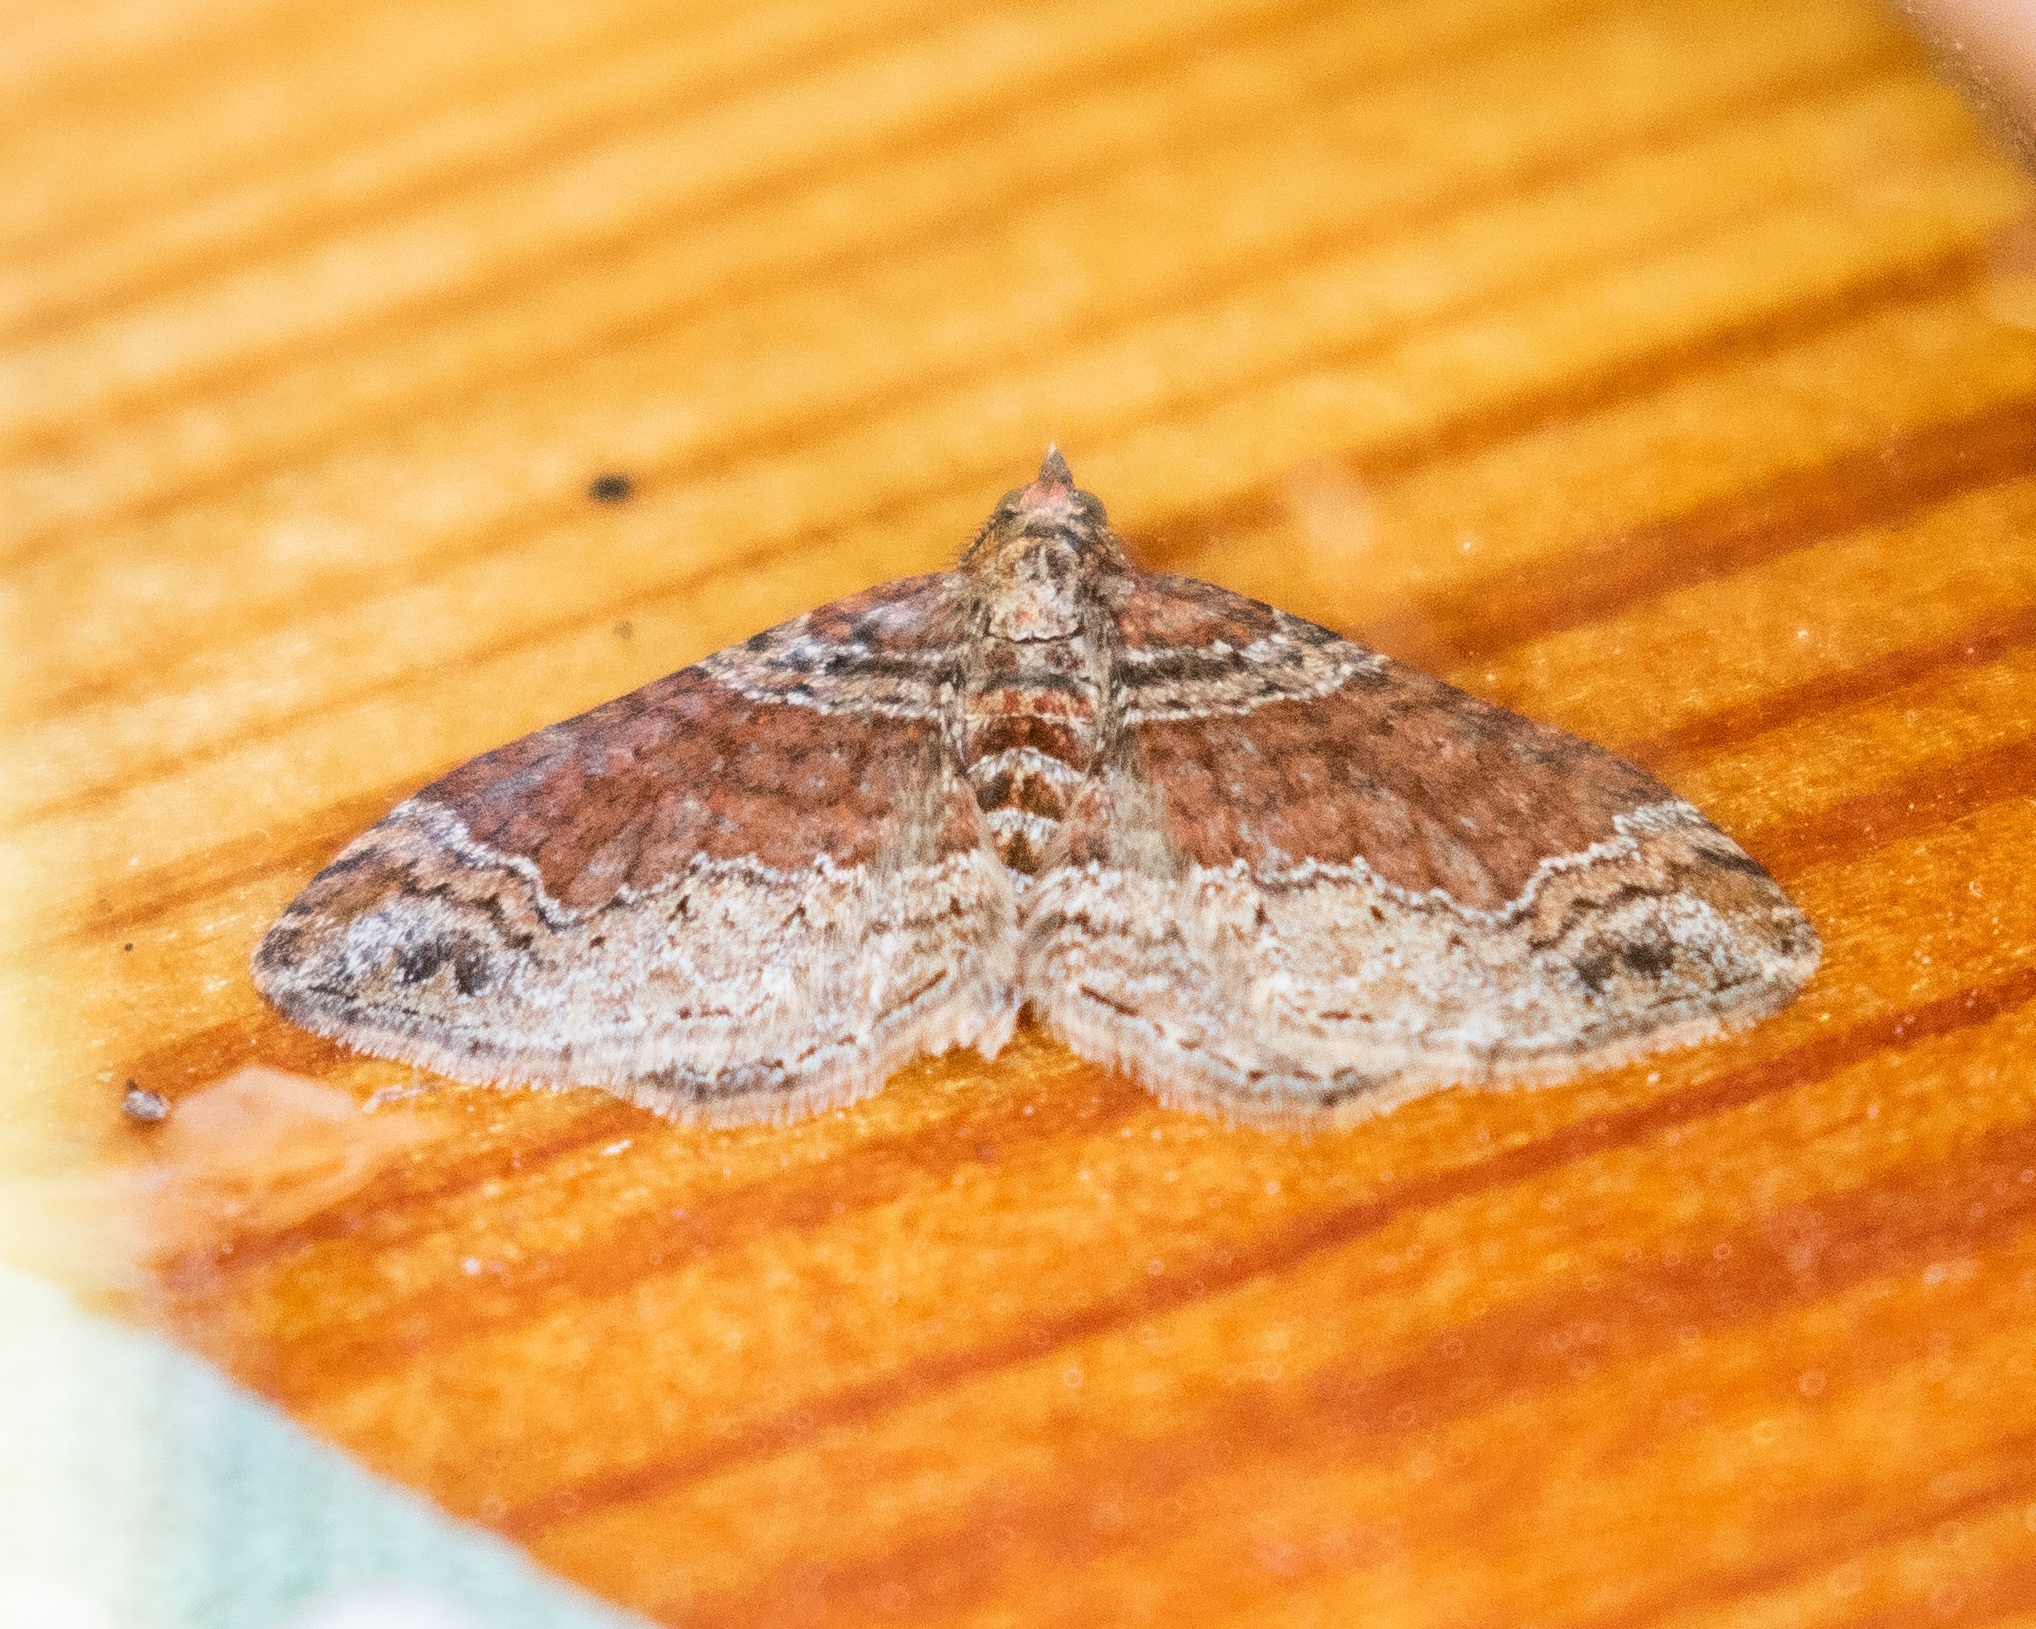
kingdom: Animalia
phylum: Arthropoda
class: Insecta
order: Lepidoptera
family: Geometridae
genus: Xanthorhoe
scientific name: Xanthorhoe ferrugata
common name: Dark-barred twin-spot carpet
